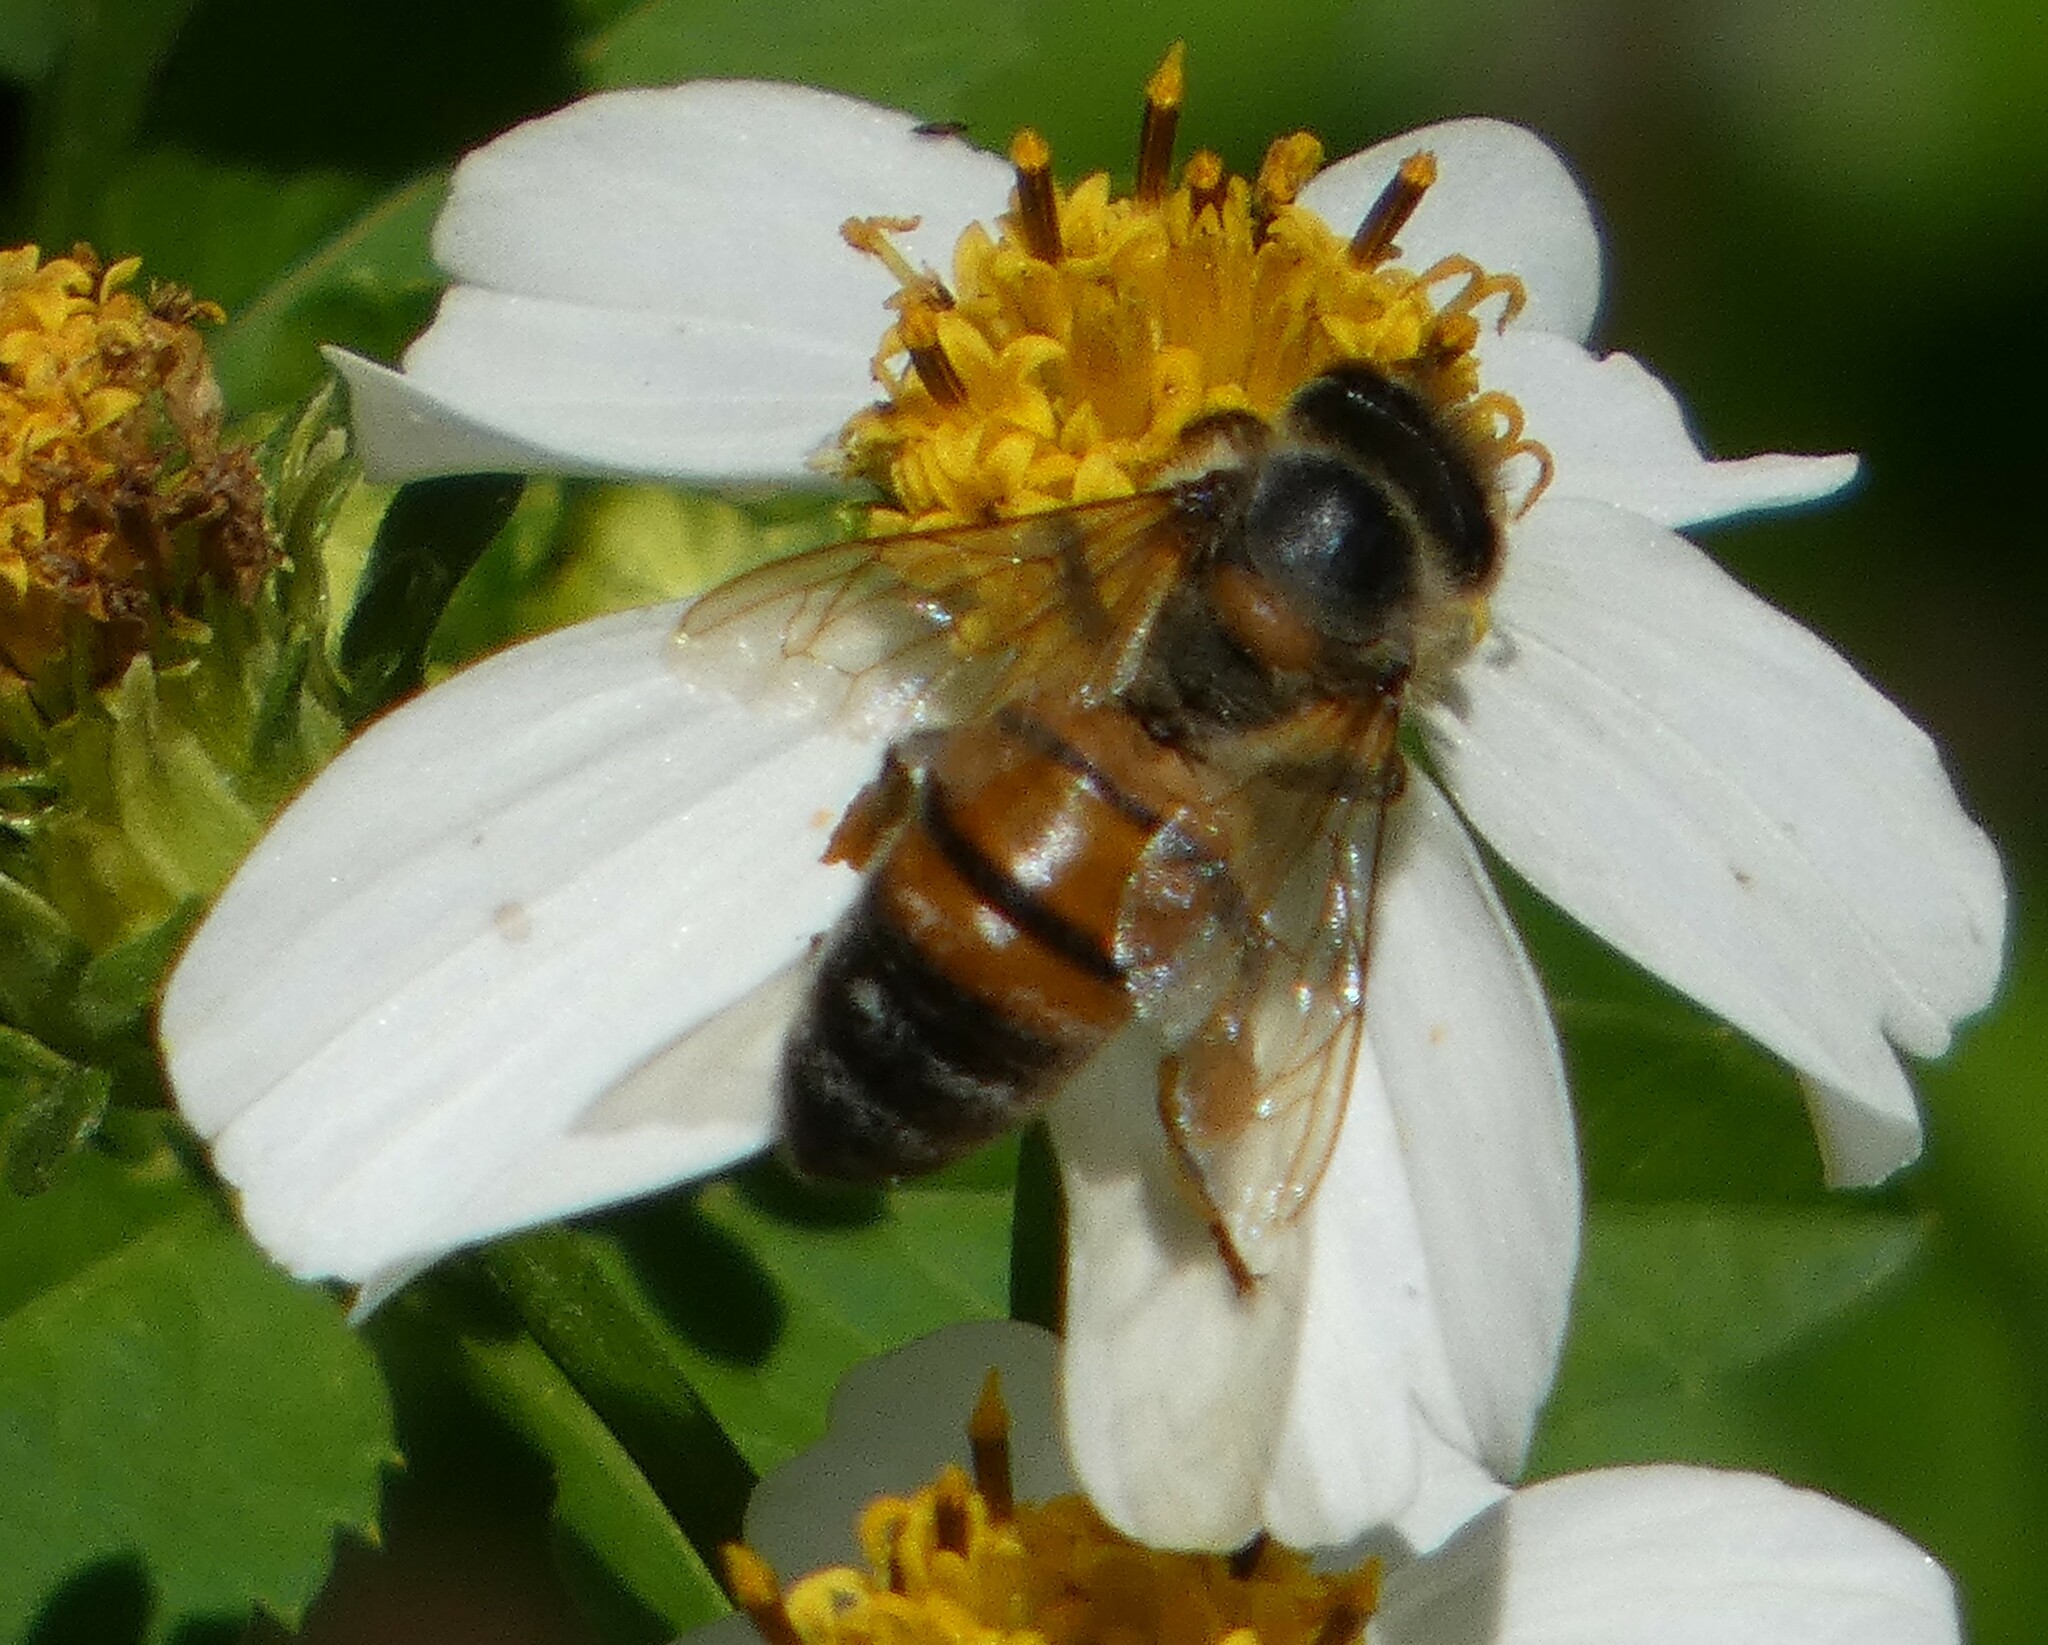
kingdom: Animalia
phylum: Arthropoda
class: Insecta
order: Hymenoptera
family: Apidae
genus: Apis
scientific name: Apis mellifera
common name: Honey bee
